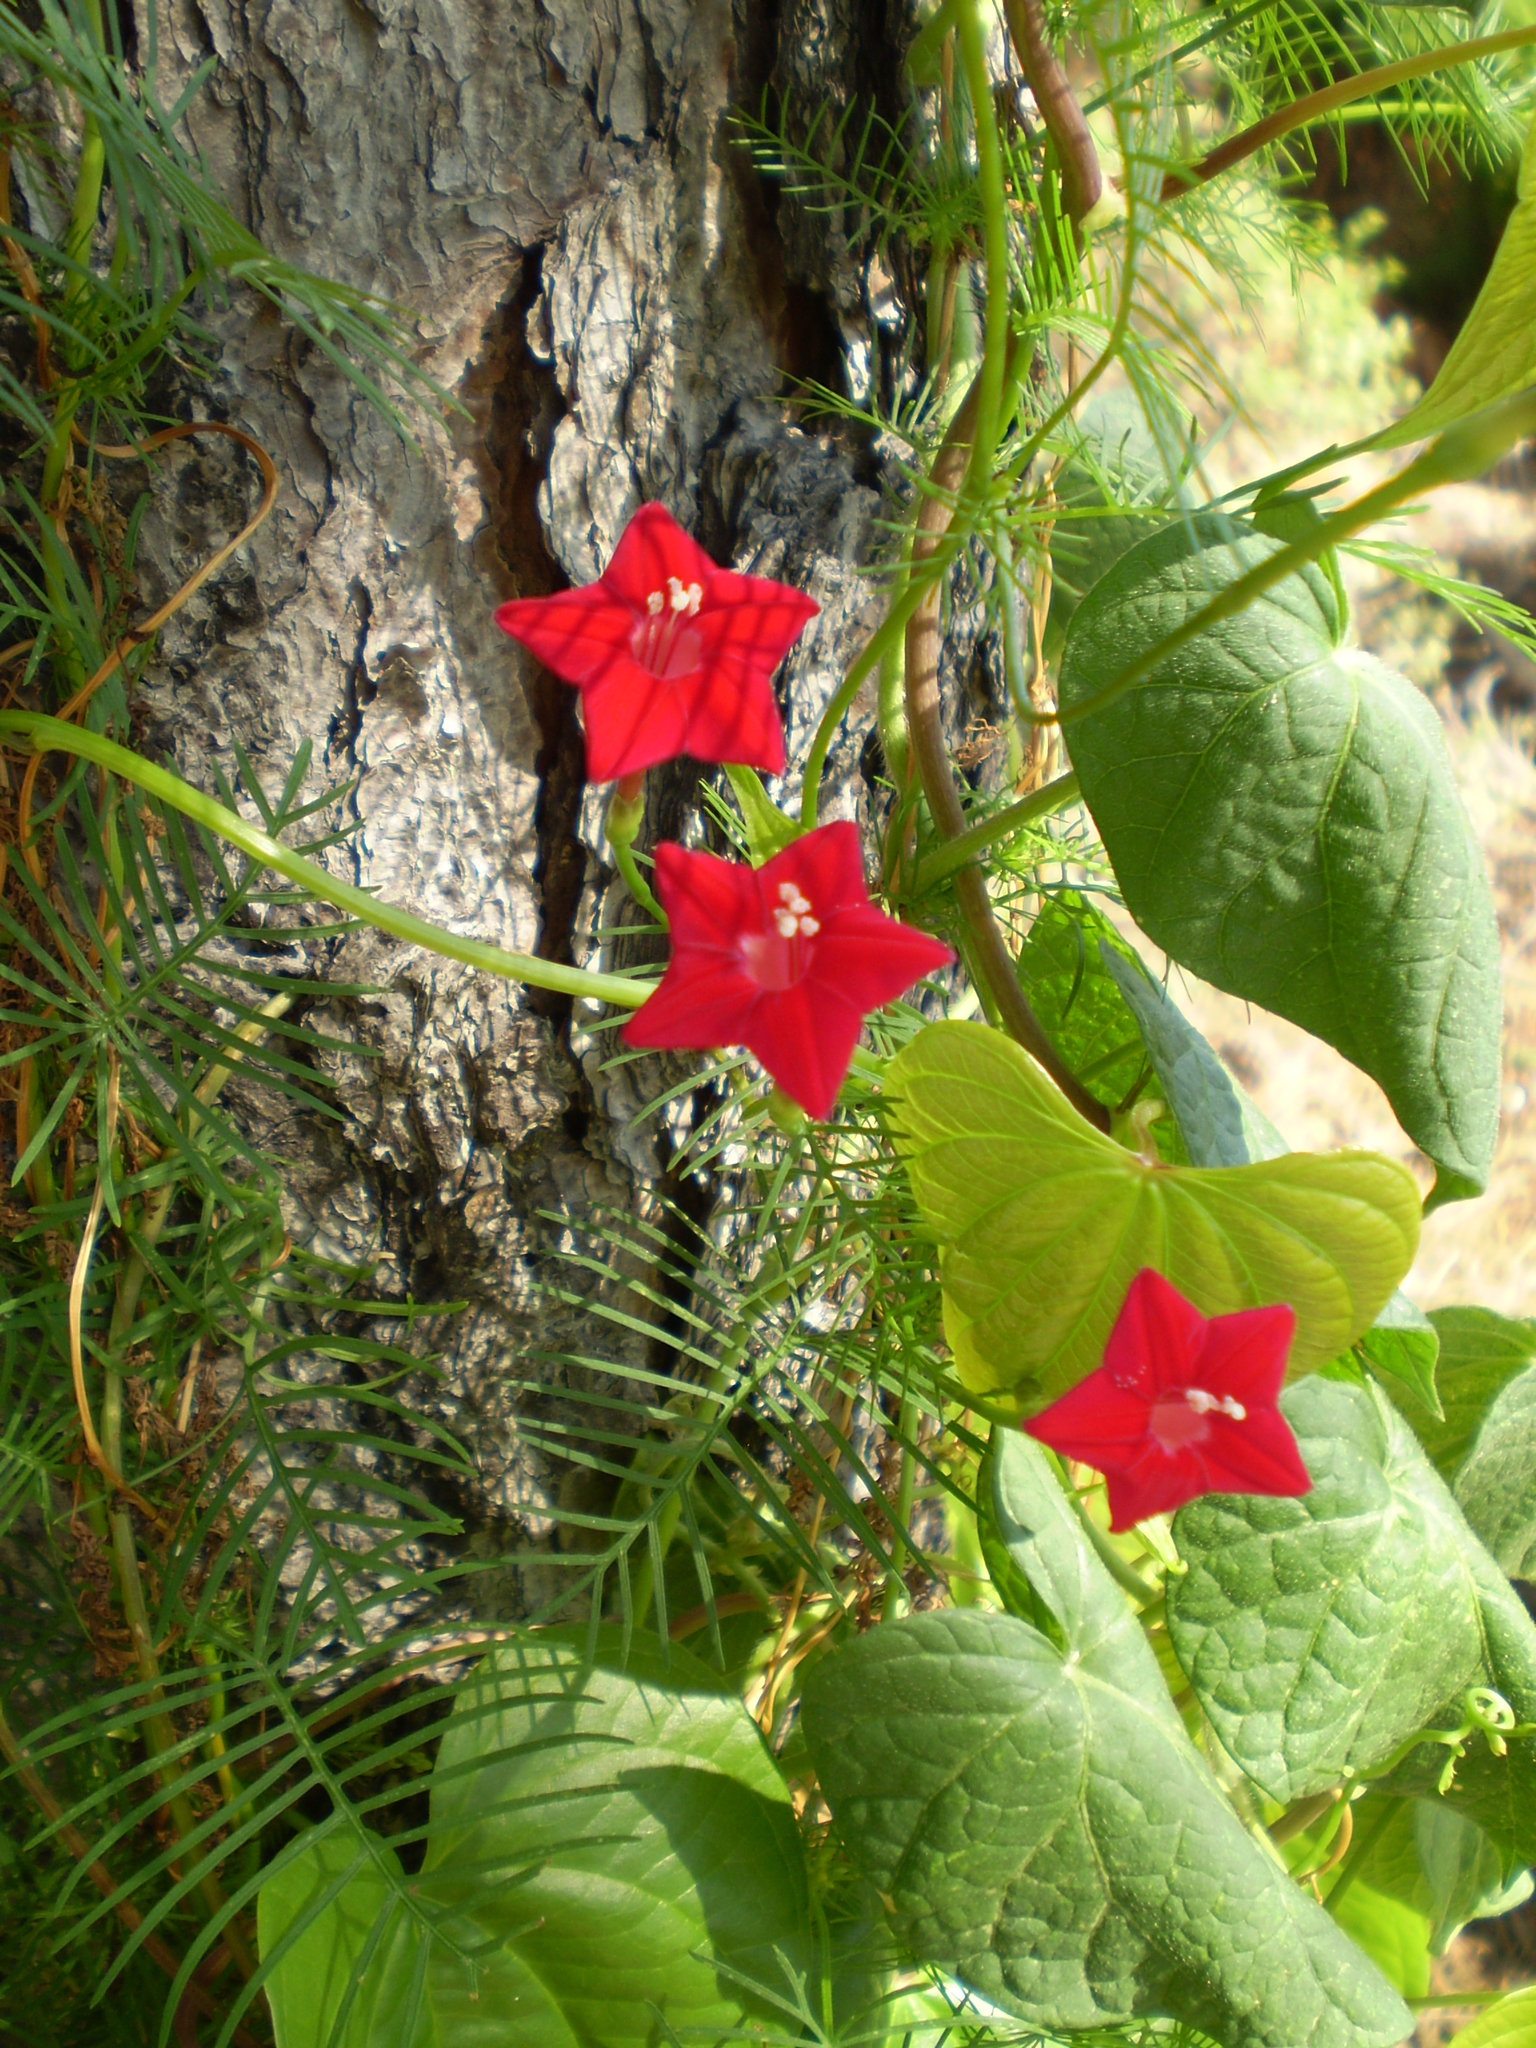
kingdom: Plantae
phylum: Tracheophyta
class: Magnoliopsida
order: Solanales
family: Convolvulaceae
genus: Ipomoea
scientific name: Ipomoea quamoclit
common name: Cypress vine
